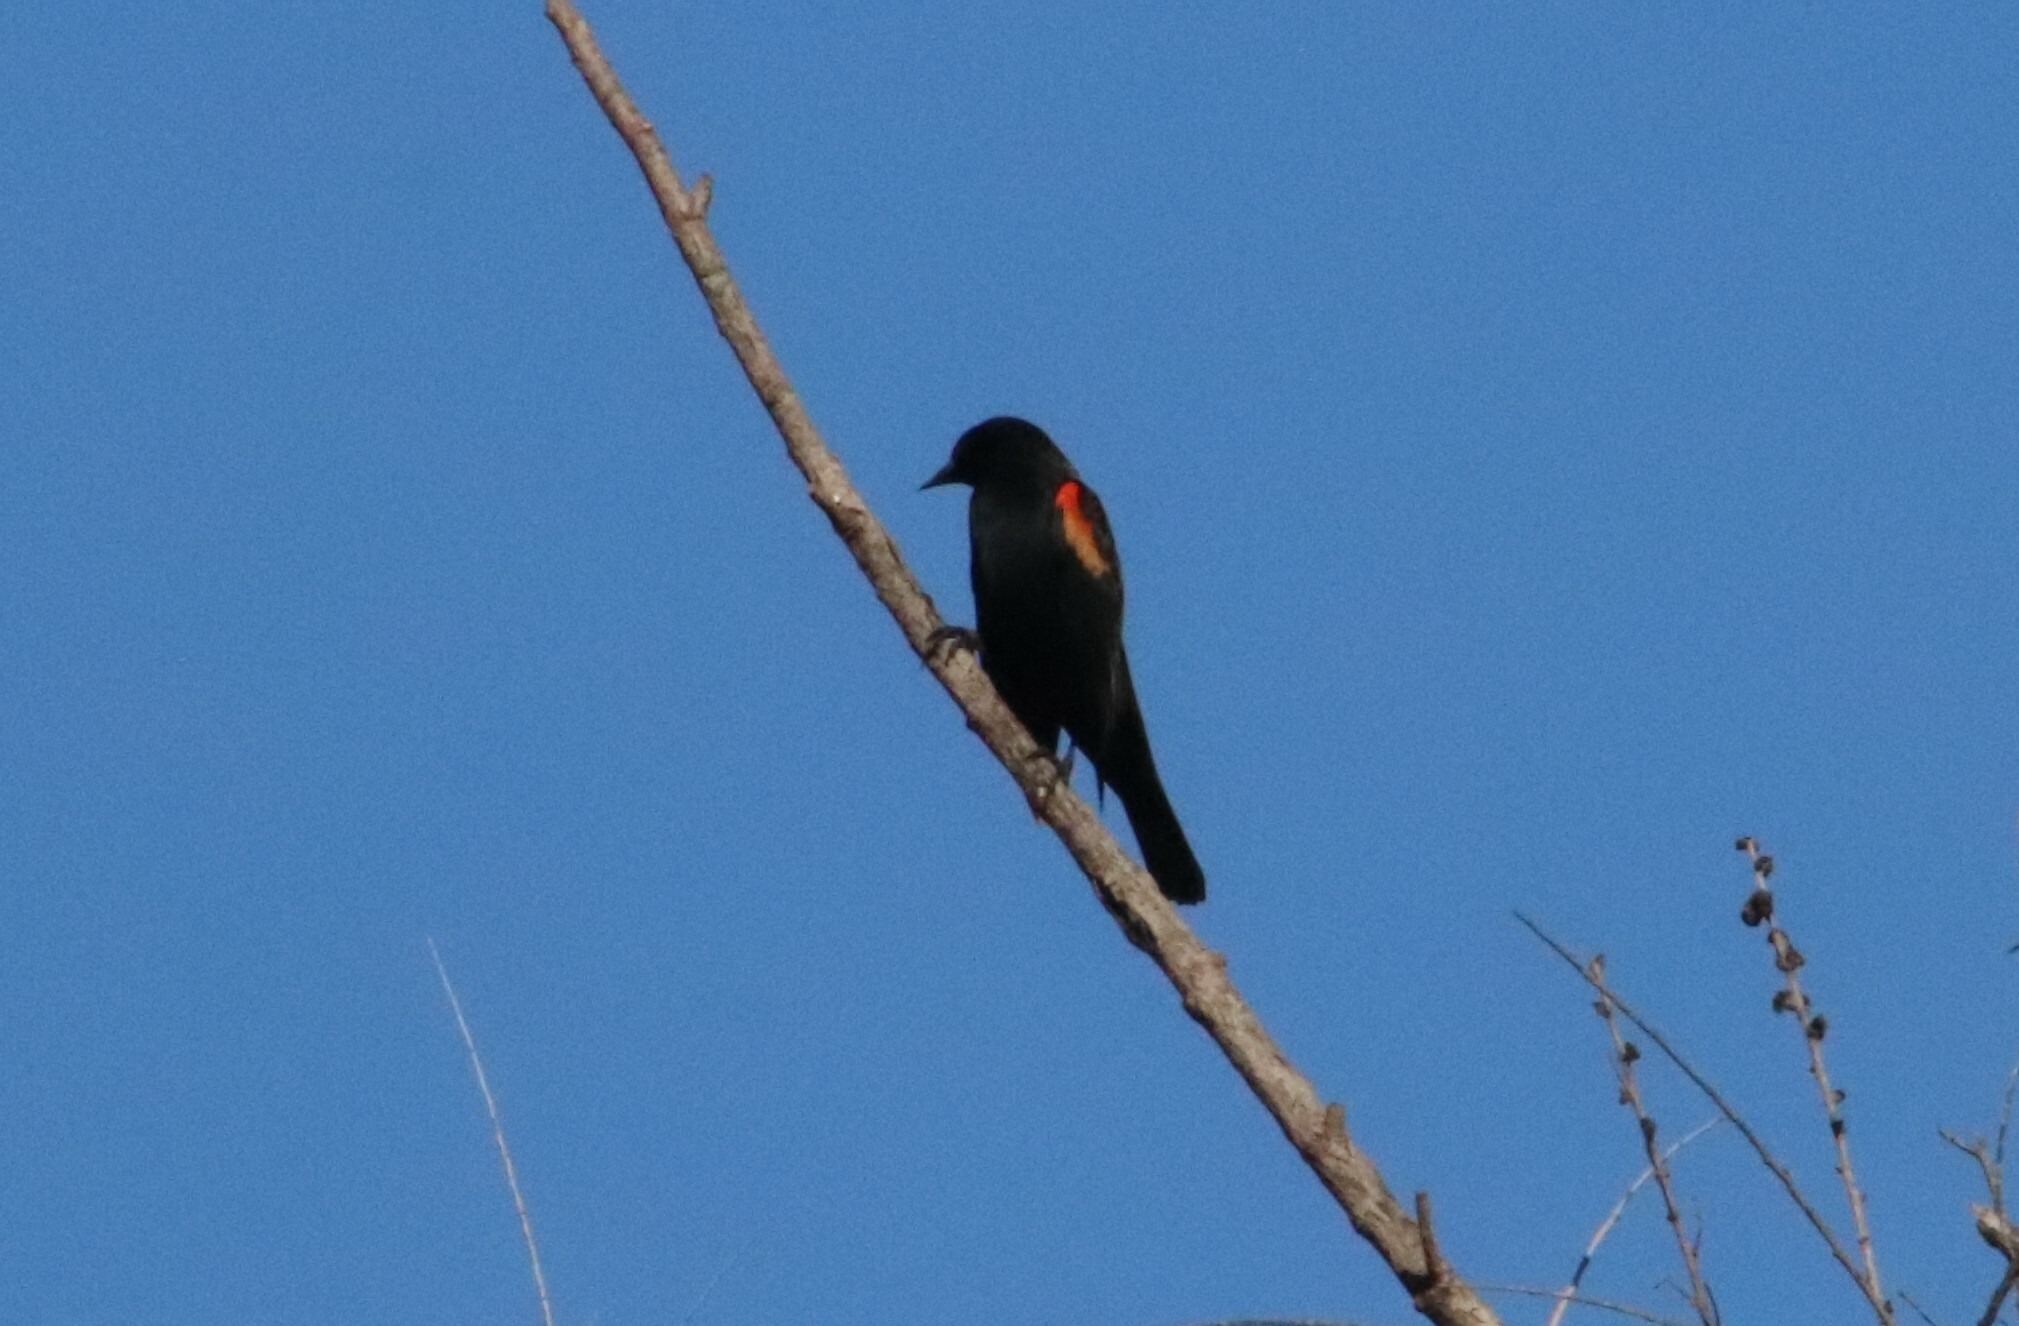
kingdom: Animalia
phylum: Chordata
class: Aves
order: Passeriformes
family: Icteridae
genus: Agelaius
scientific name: Agelaius phoeniceus
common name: Red-winged blackbird
